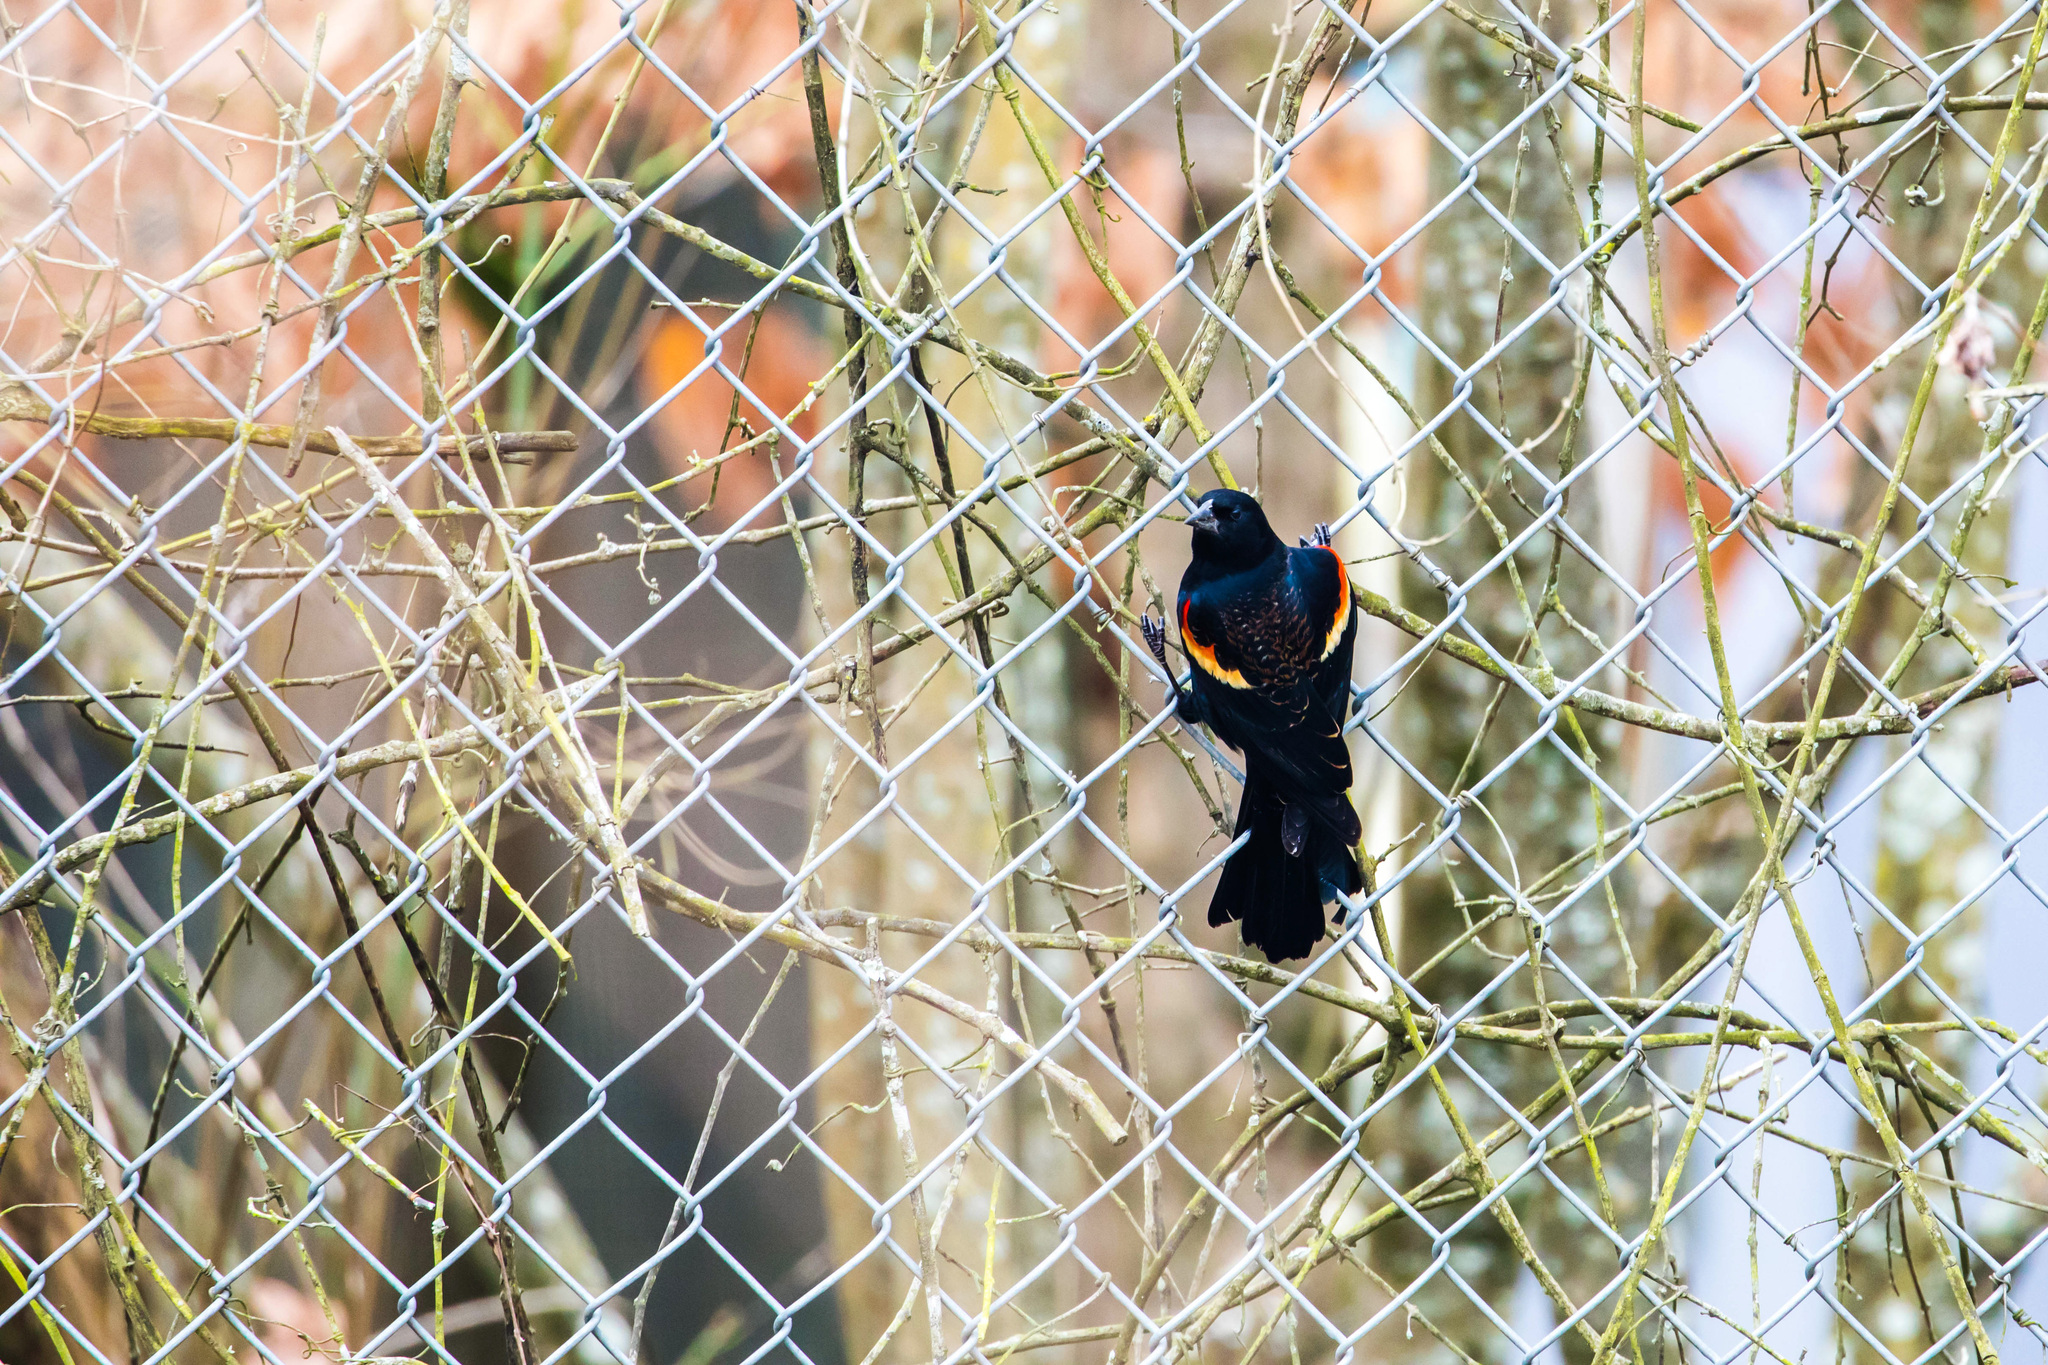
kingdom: Animalia
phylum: Chordata
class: Aves
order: Passeriformes
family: Icteridae
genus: Agelaius
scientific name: Agelaius phoeniceus
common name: Red-winged blackbird
